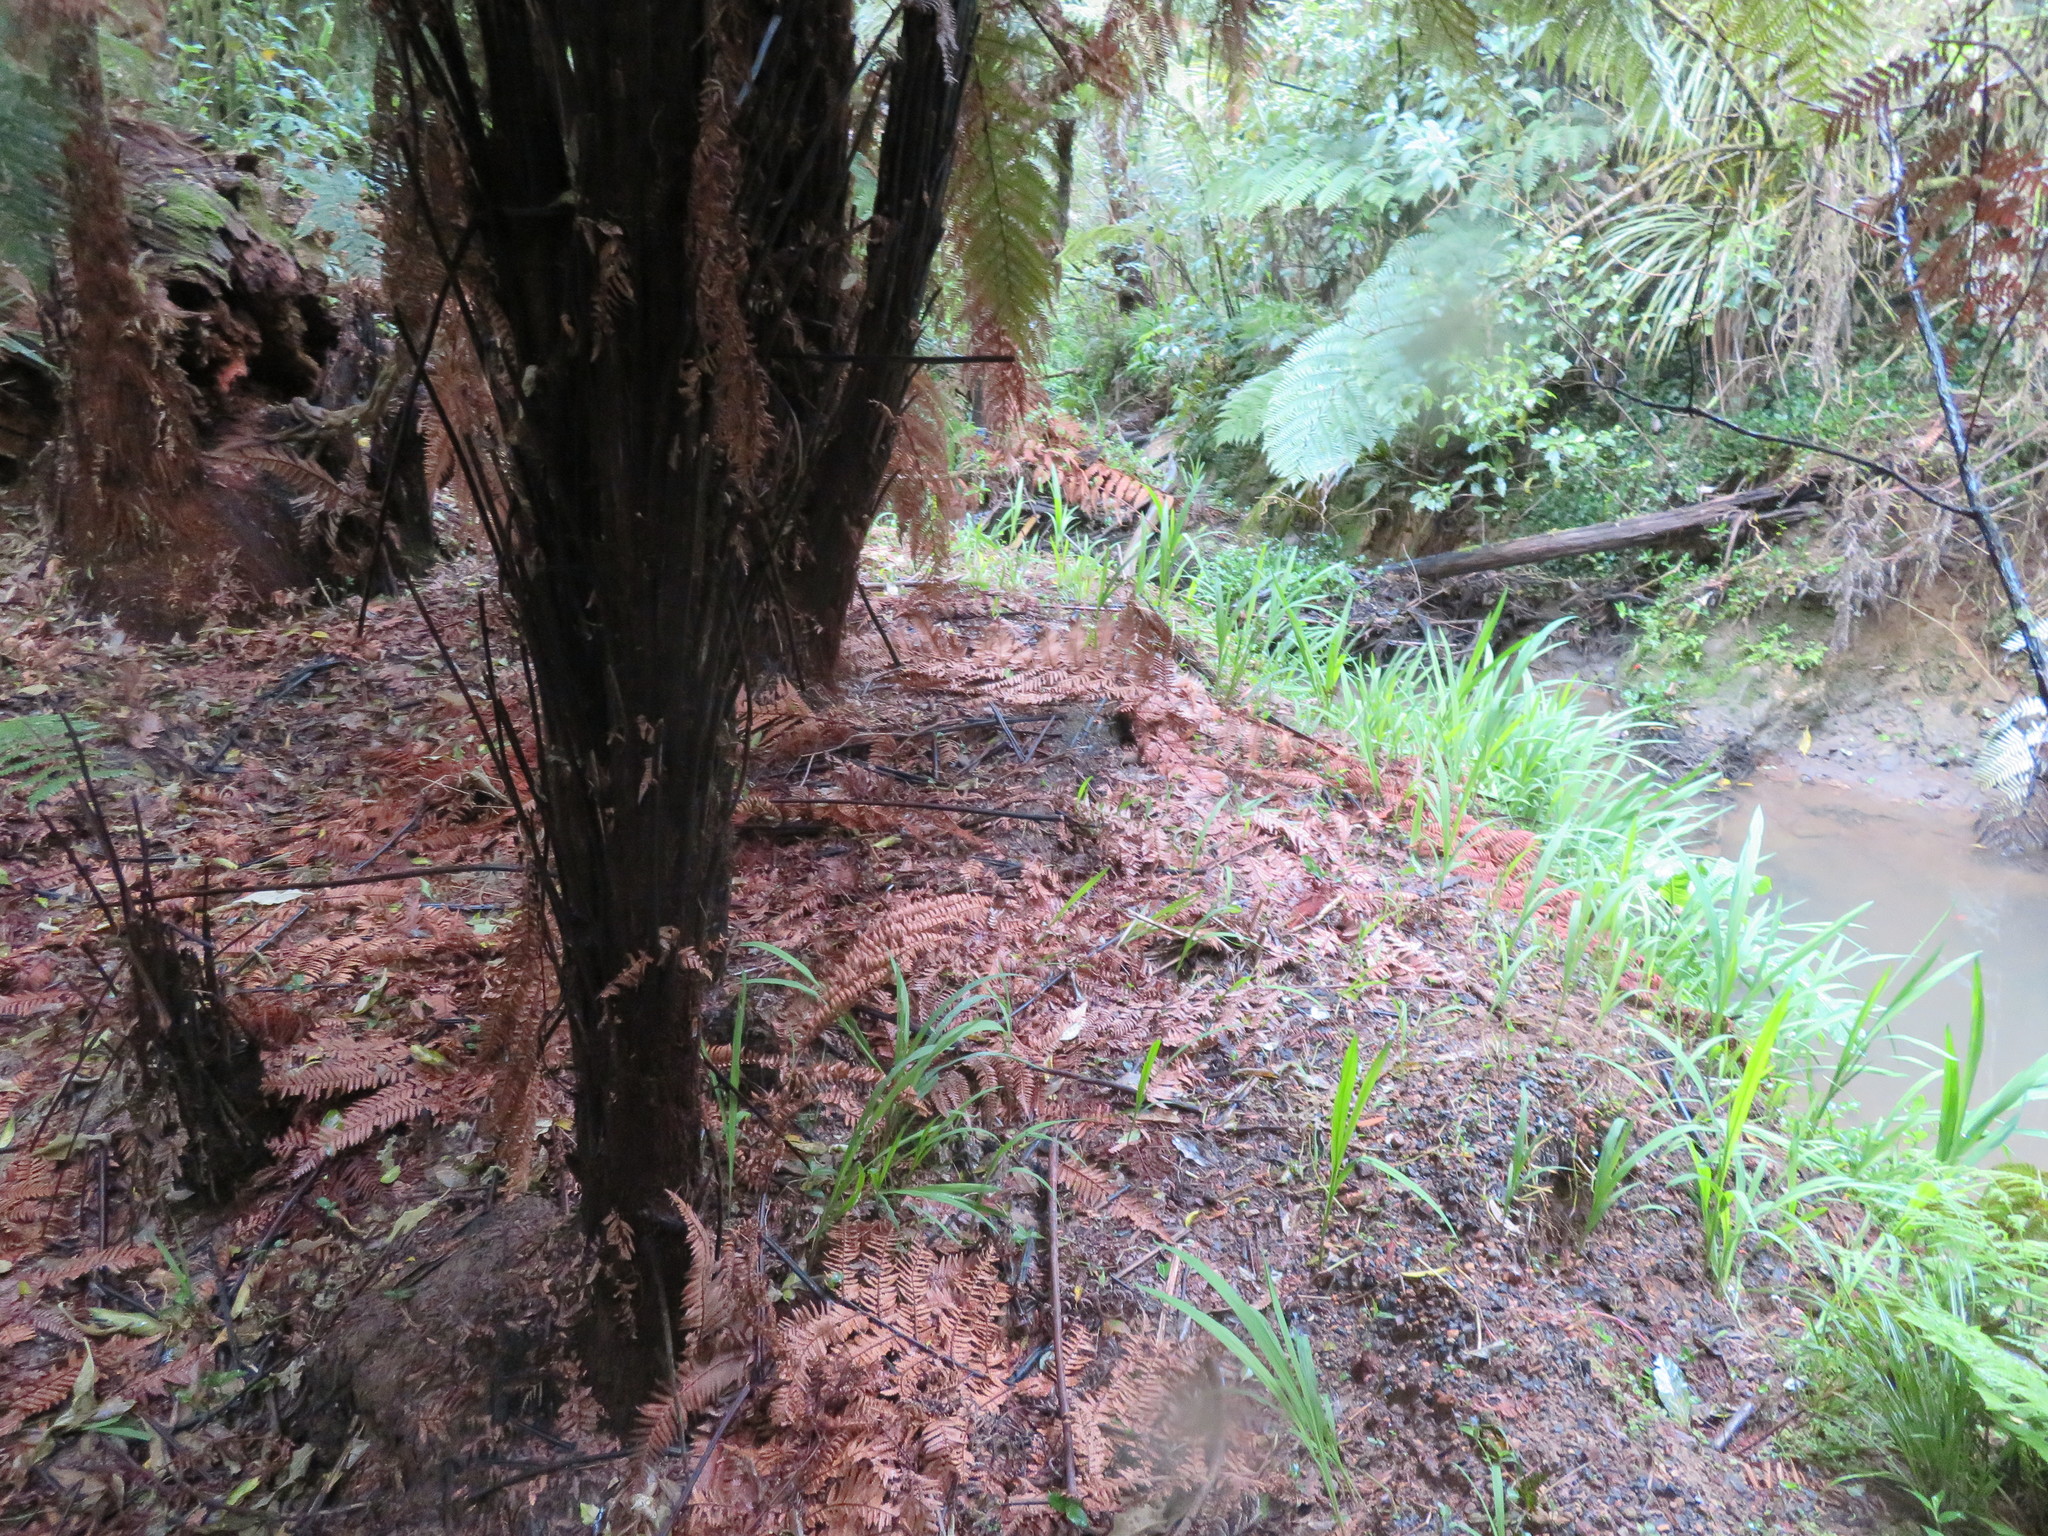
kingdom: Plantae
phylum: Tracheophyta
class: Liliopsida
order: Asparagales
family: Iridaceae
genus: Crocosmia
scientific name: Crocosmia crocosmiiflora
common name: Montbretia
